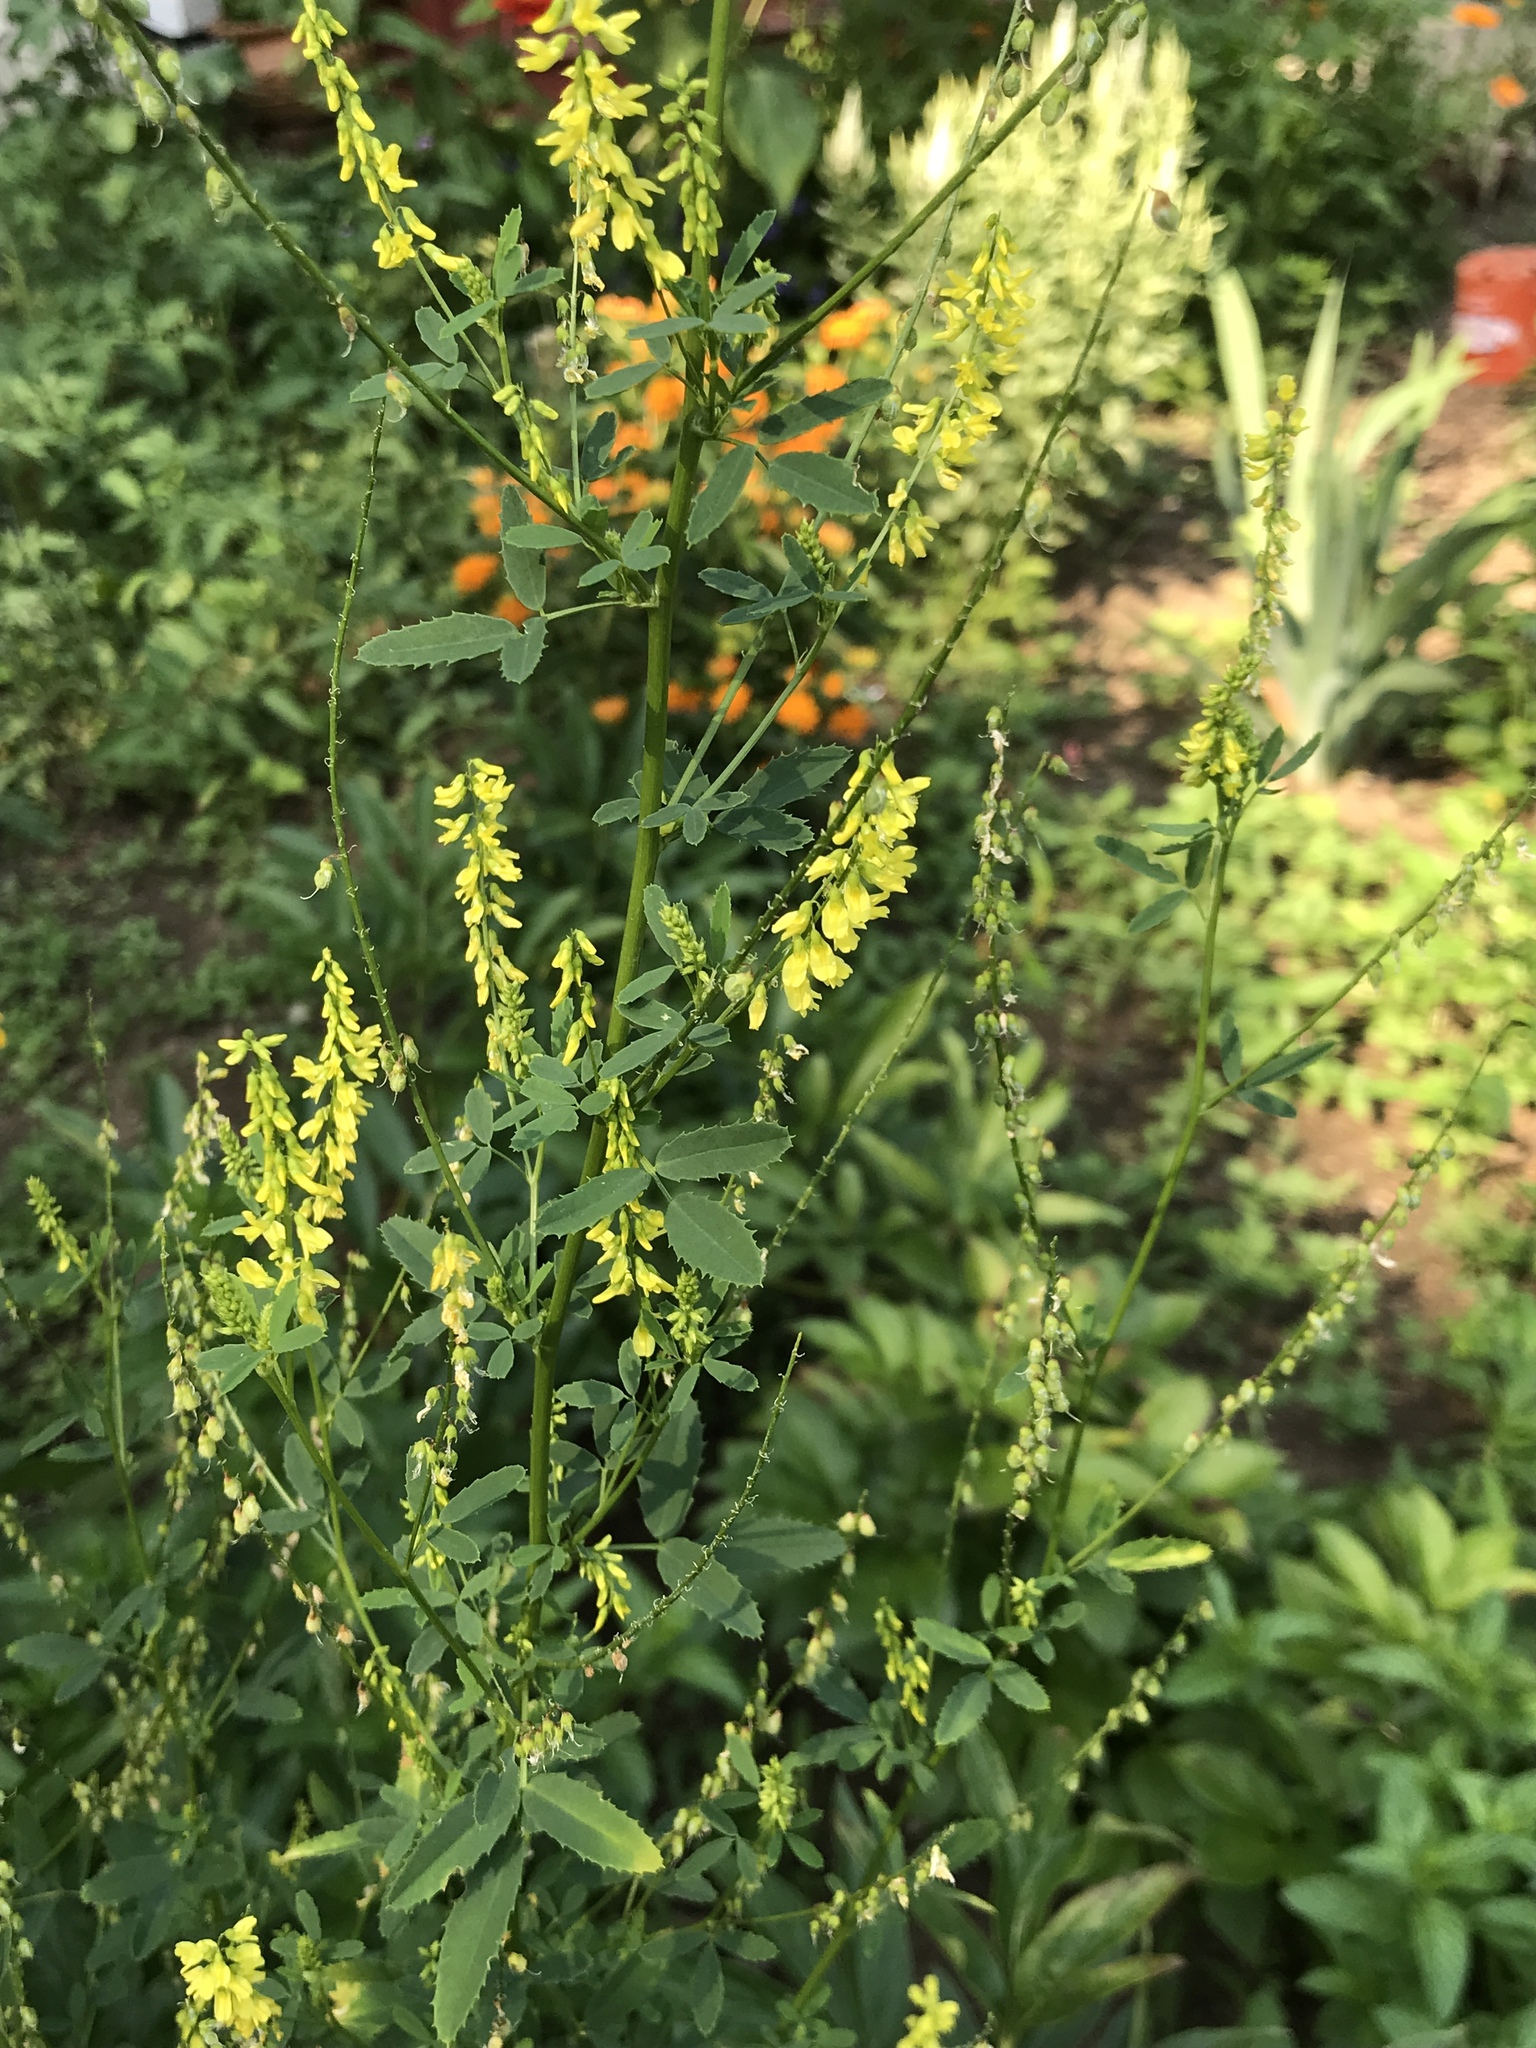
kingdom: Plantae
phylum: Tracheophyta
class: Magnoliopsida
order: Fabales
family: Fabaceae
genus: Melilotus
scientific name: Melilotus officinalis
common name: Sweetclover
